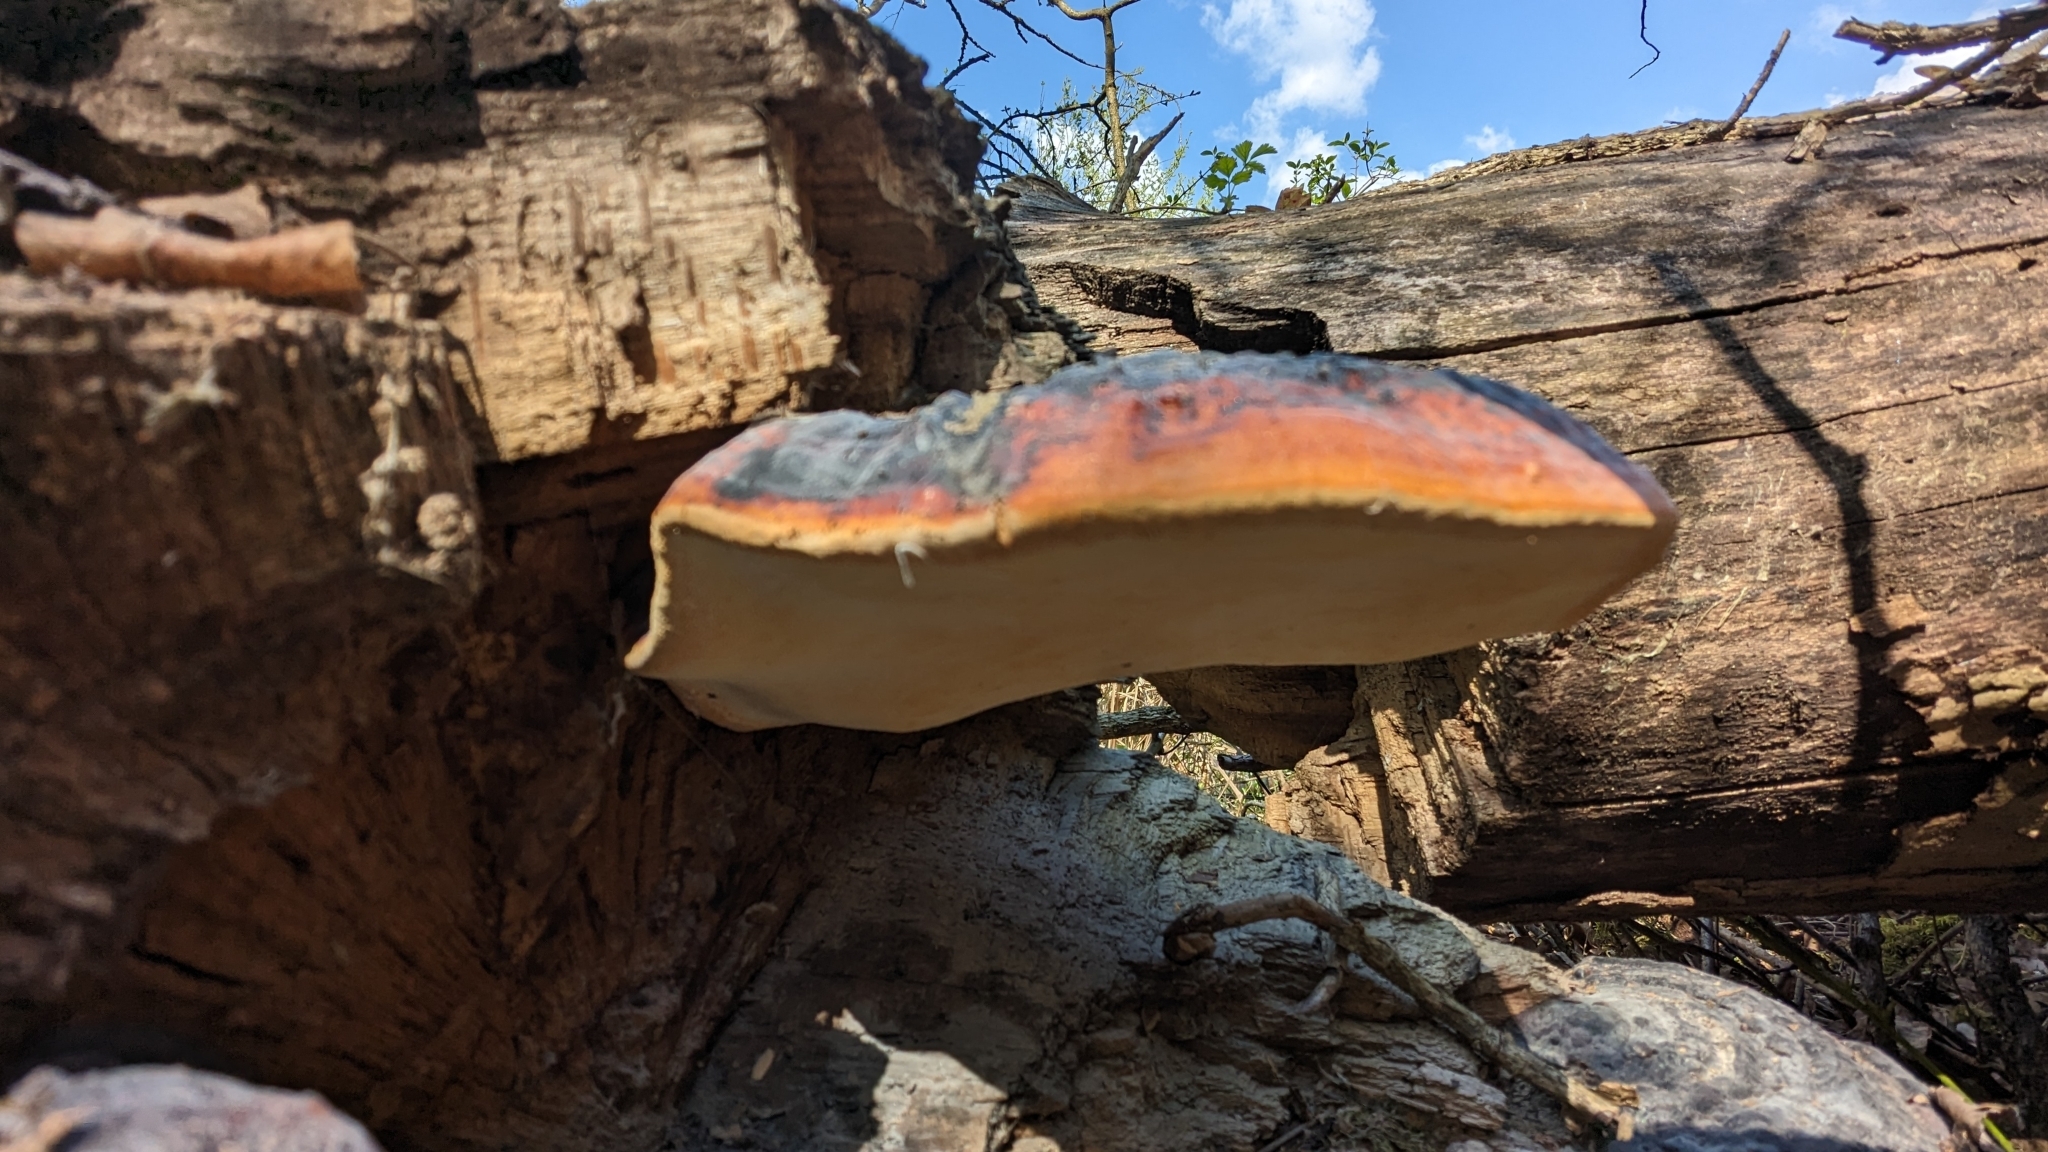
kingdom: Fungi
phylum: Basidiomycota
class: Agaricomycetes
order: Polyporales
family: Fomitopsidaceae
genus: Fomitopsis
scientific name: Fomitopsis pinicola
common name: Red-belted bracket
